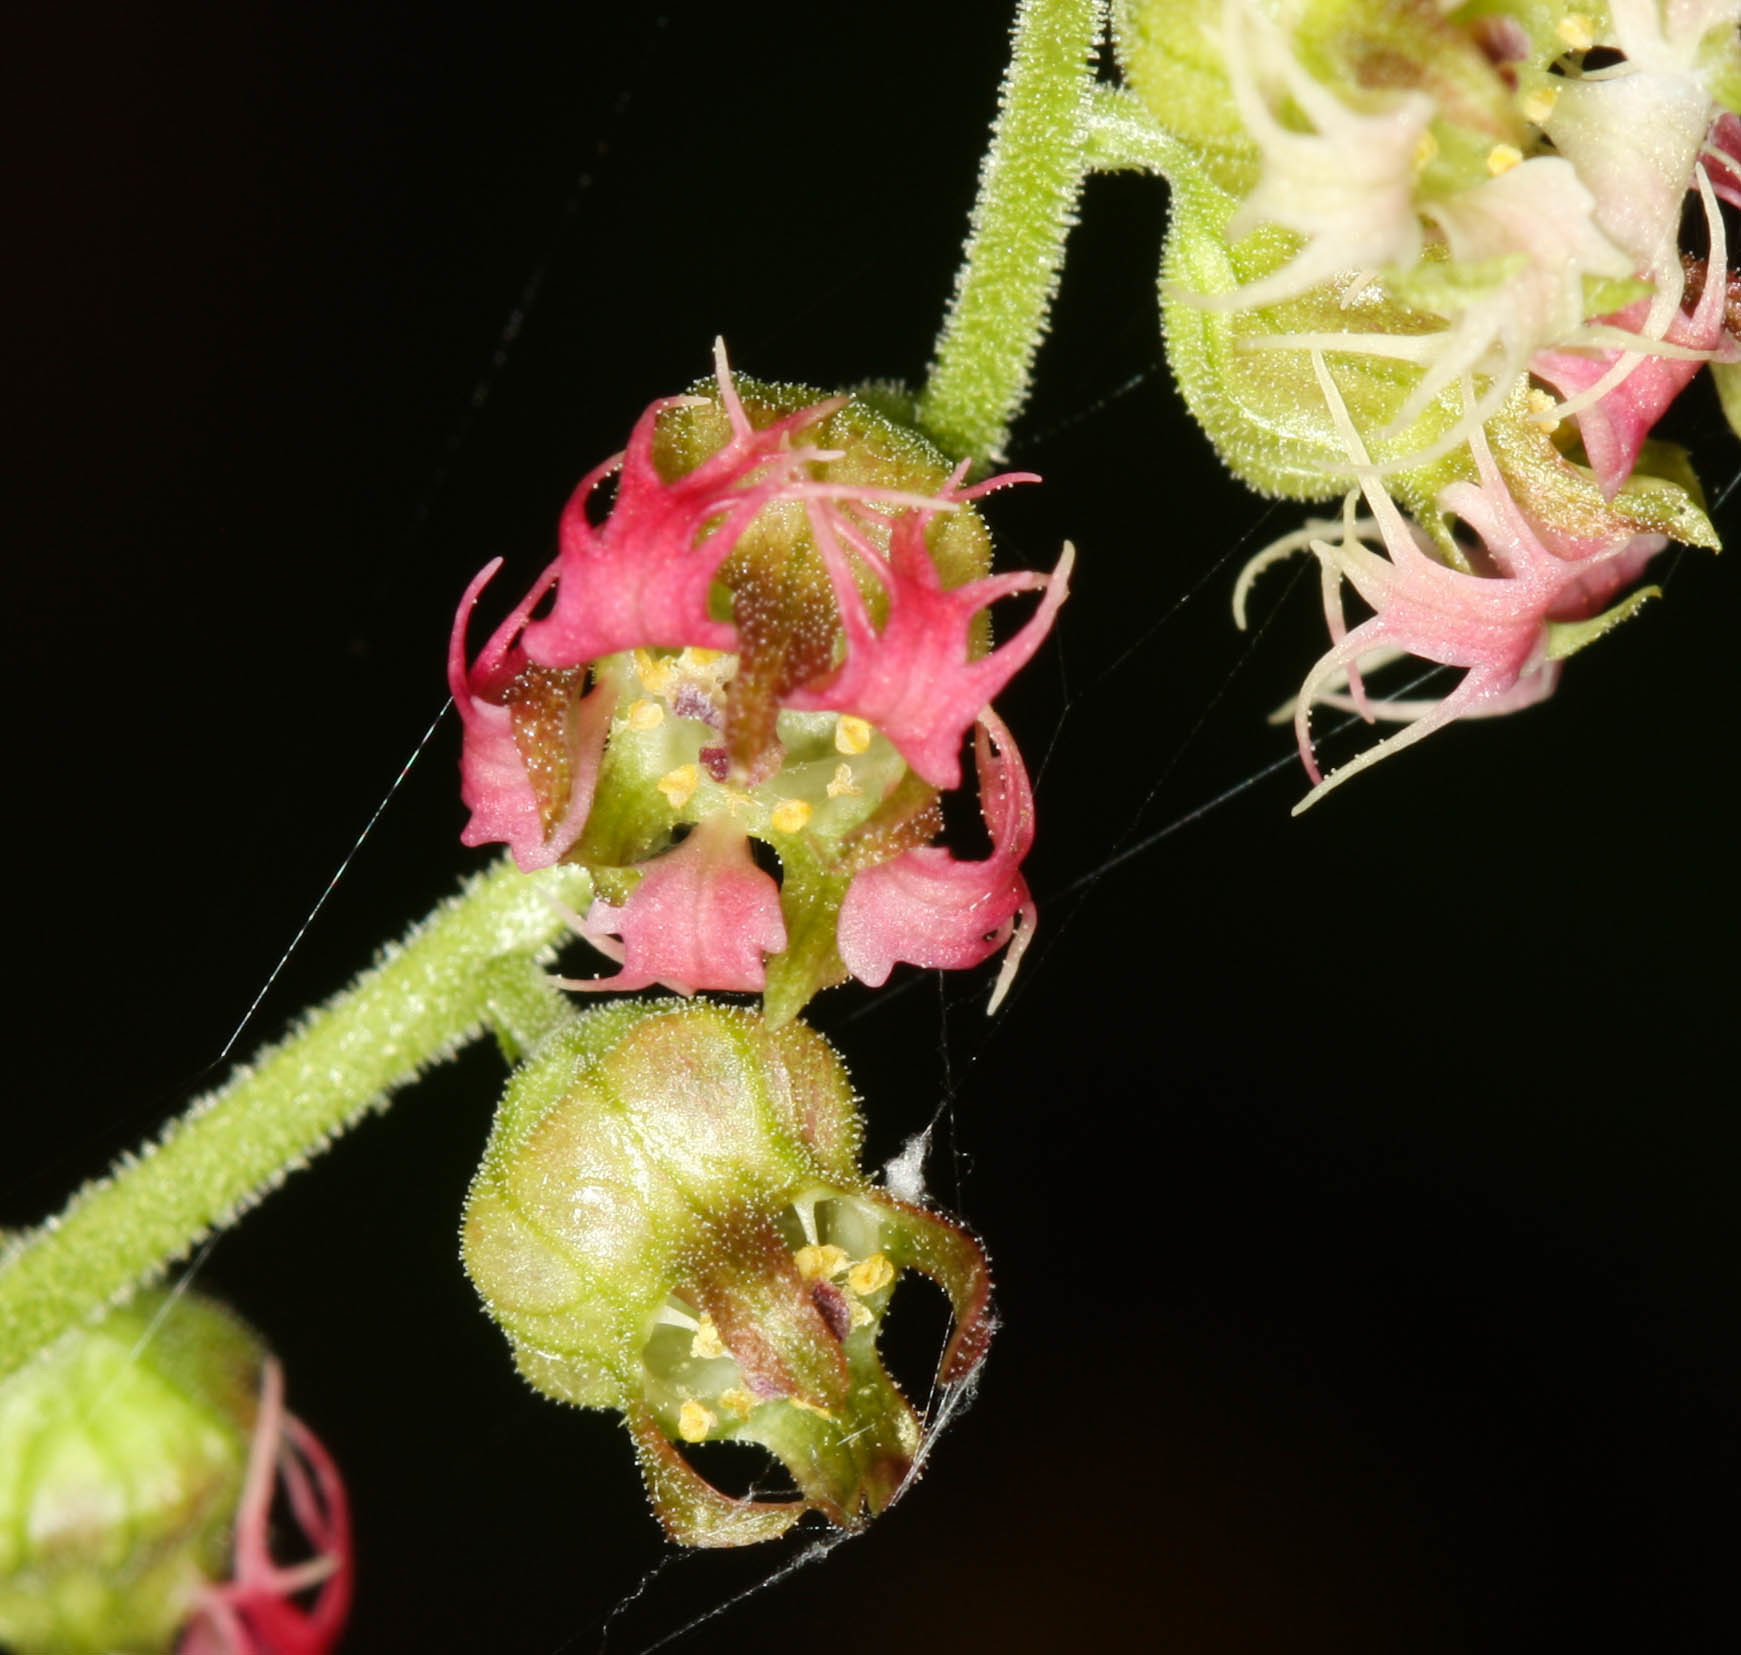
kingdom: Plantae
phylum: Tracheophyta
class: Magnoliopsida
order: Saxifragales
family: Saxifragaceae
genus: Tellima
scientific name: Tellima grandiflora
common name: Fringecups
